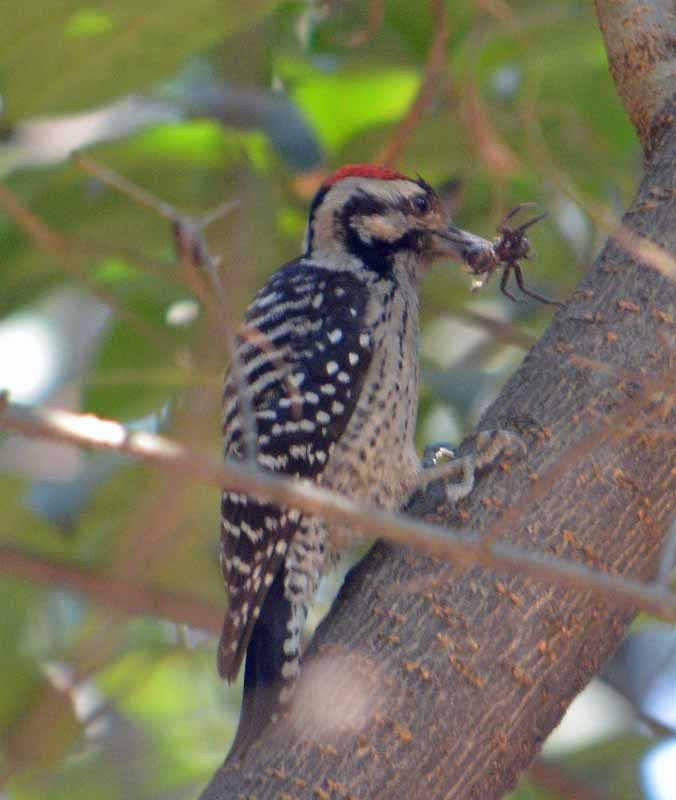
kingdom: Animalia
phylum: Chordata
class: Aves
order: Piciformes
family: Picidae
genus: Dryobates
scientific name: Dryobates scalaris
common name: Ladder-backed woodpecker
